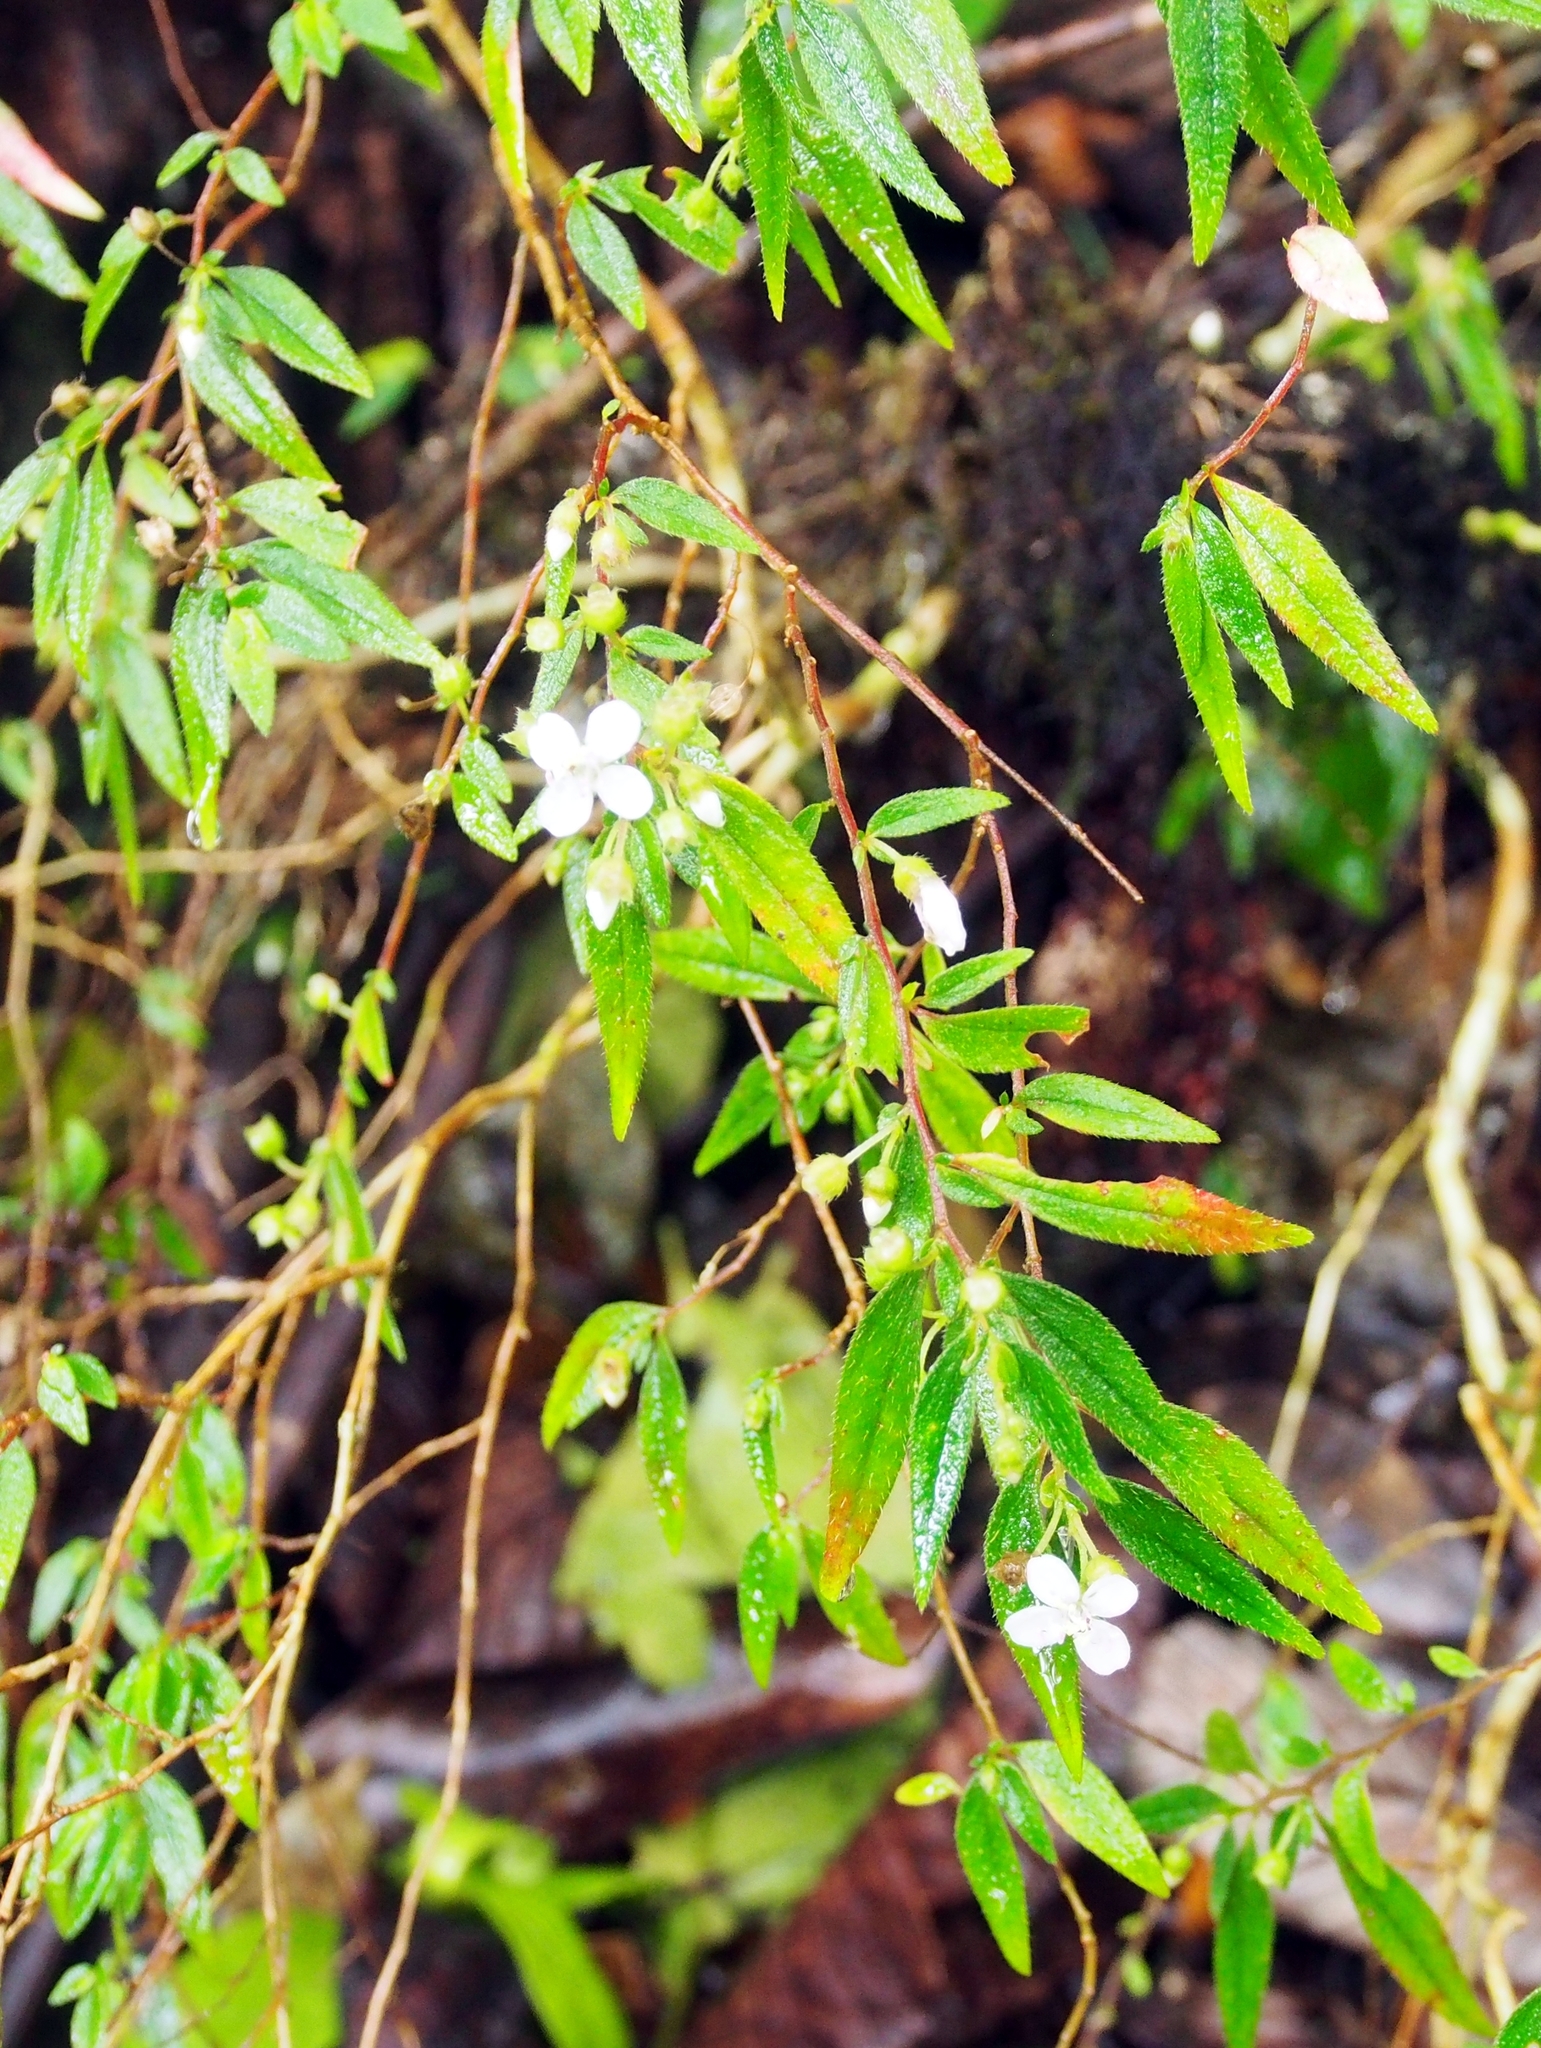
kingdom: Plantae
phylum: Tracheophyta
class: Magnoliopsida
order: Myrtales
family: Melastomataceae
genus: Centradenia
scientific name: Centradenia inaequilateralis
